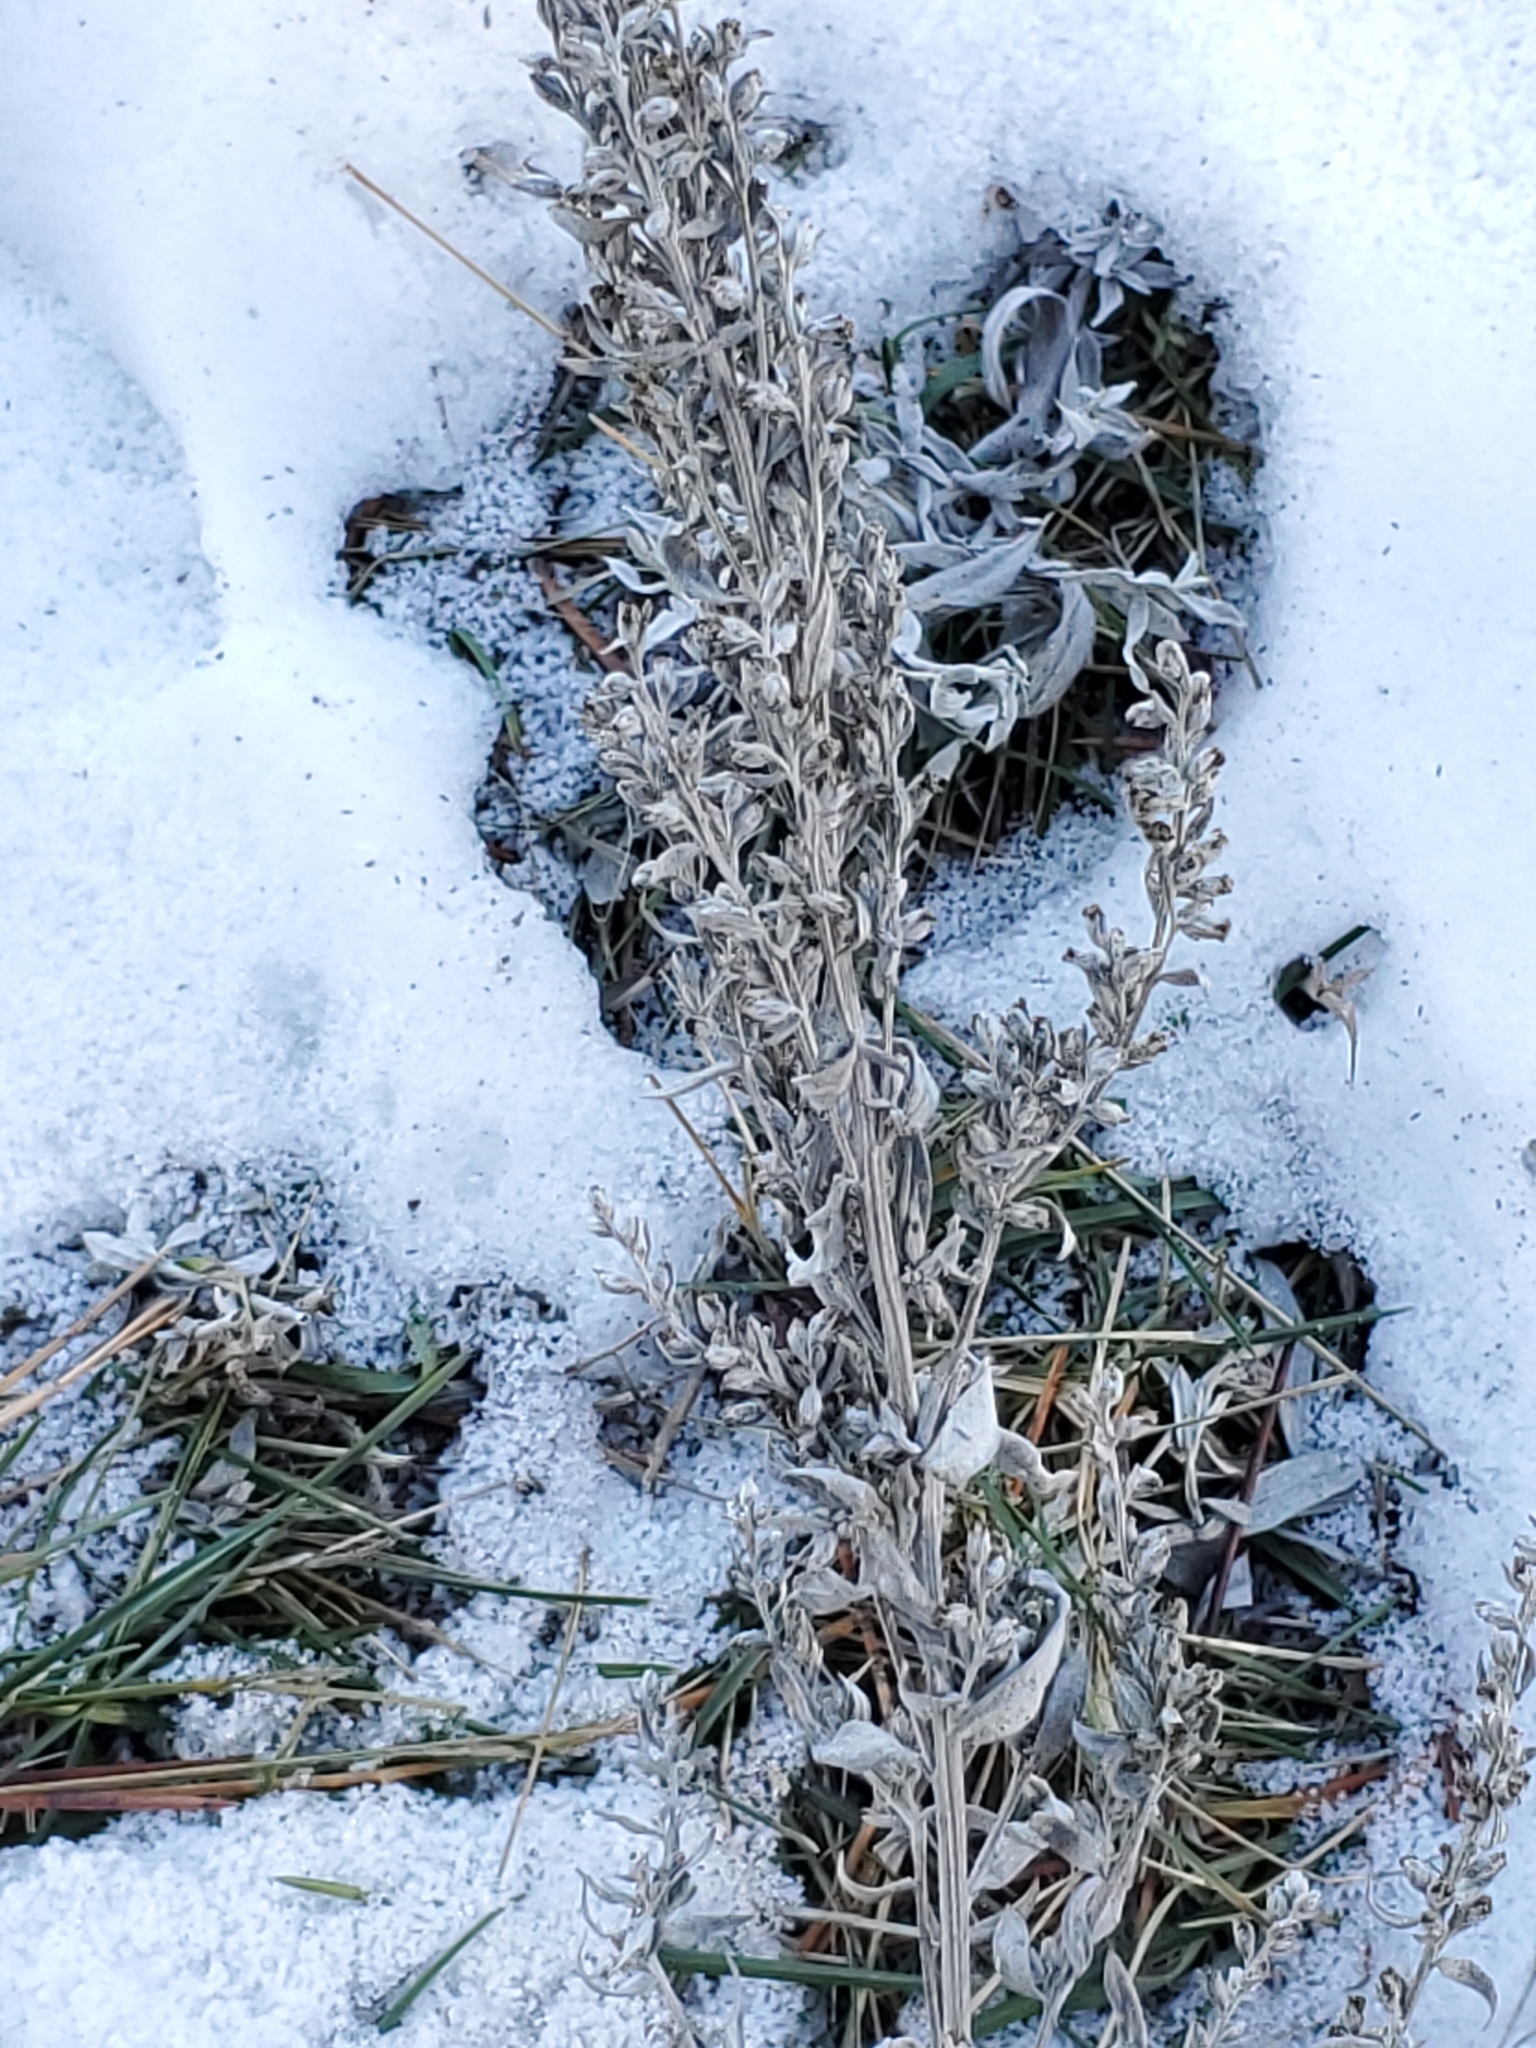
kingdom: Plantae
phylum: Tracheophyta
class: Magnoliopsida
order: Asterales
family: Asteraceae
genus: Artemisia
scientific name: Artemisia ludoviciana
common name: Western mugwort
